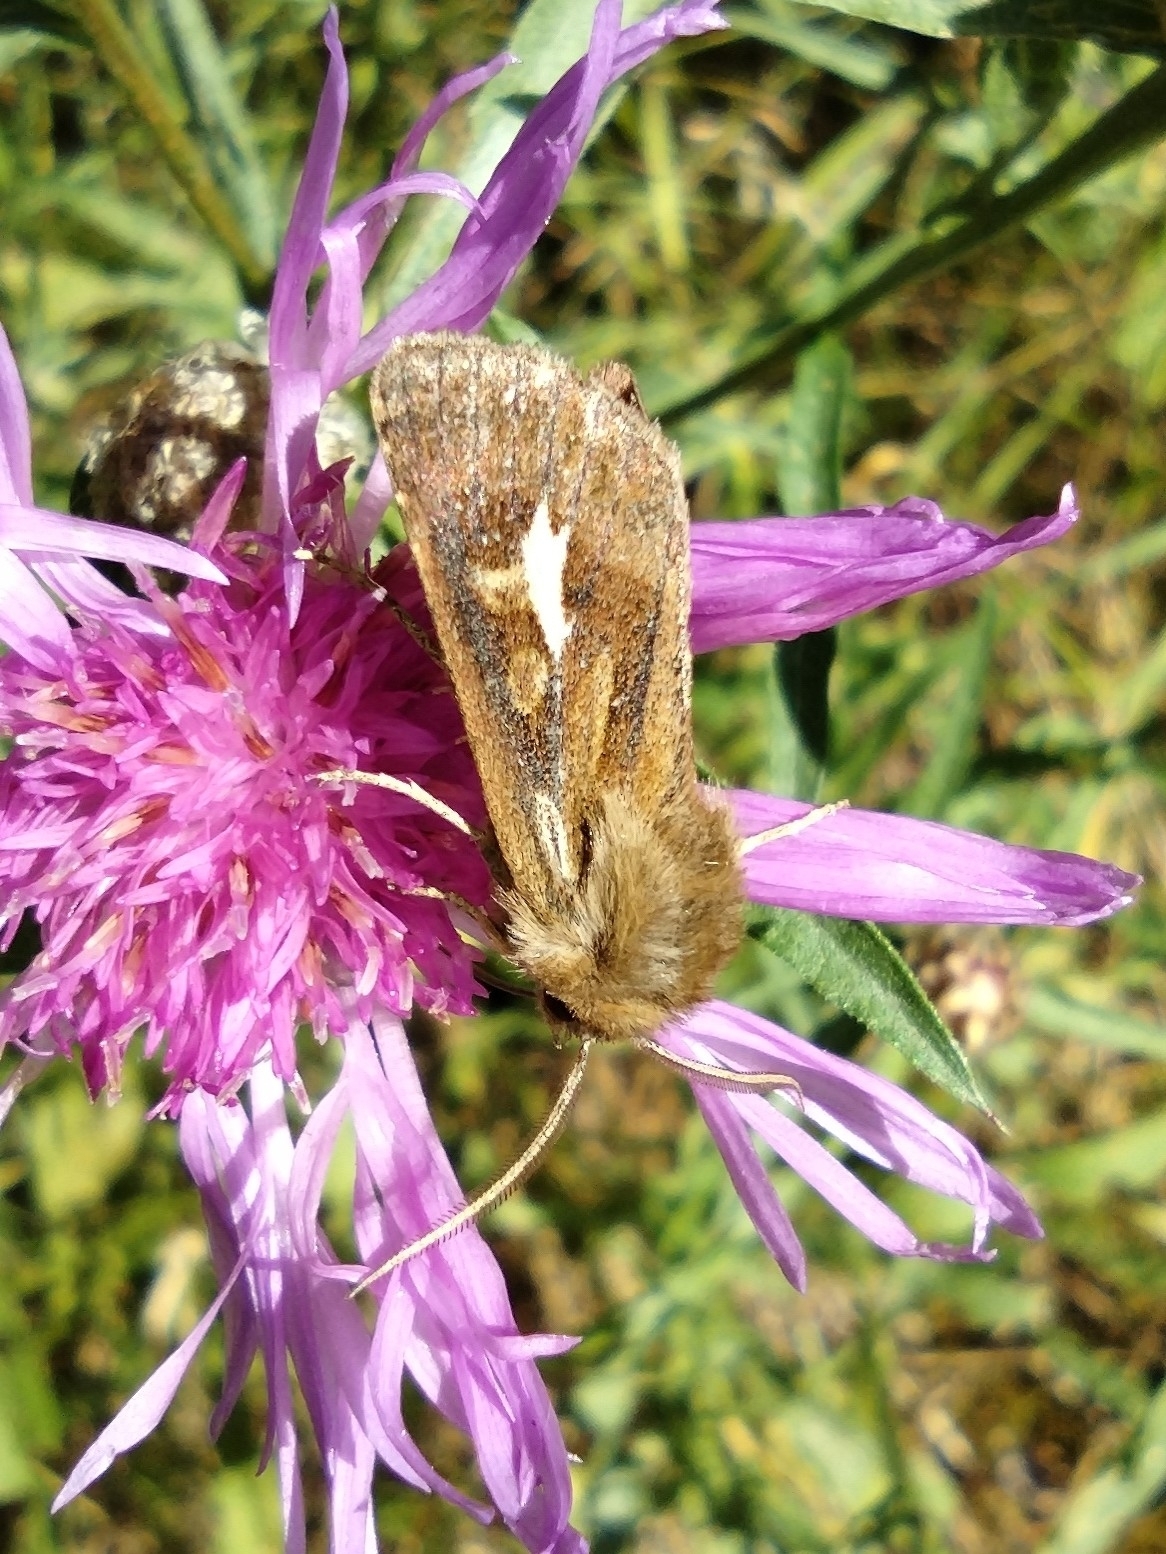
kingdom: Animalia
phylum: Arthropoda
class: Insecta
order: Lepidoptera
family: Noctuidae
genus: Cerapteryx
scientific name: Cerapteryx graminis
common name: Antler moth
